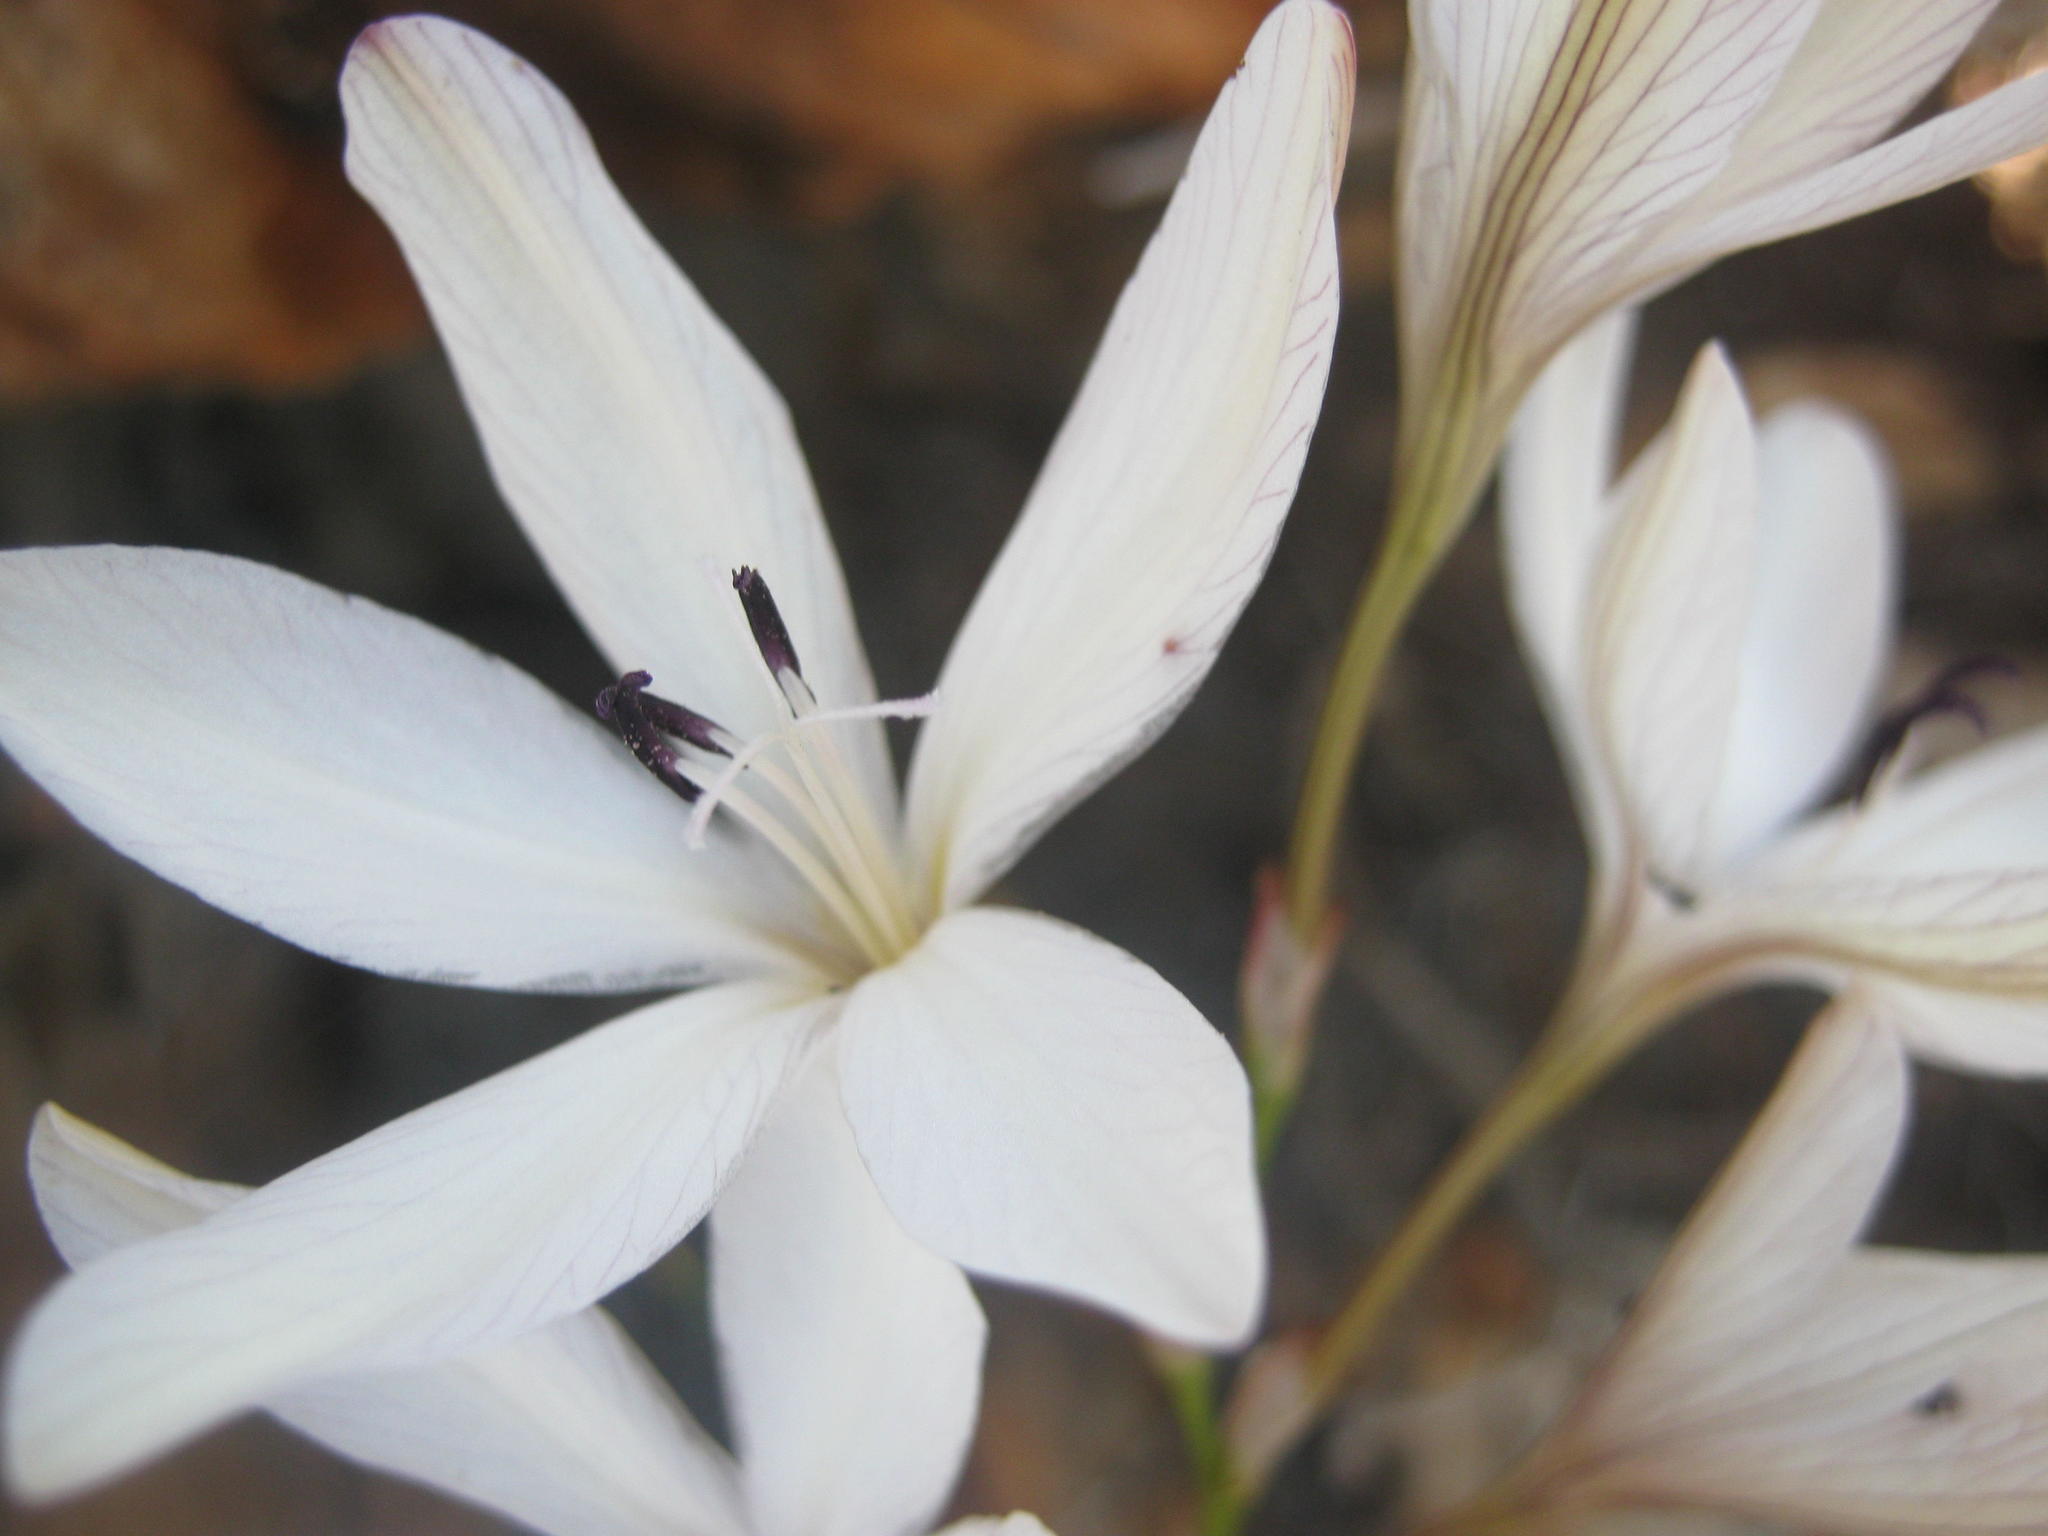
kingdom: Plantae
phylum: Tracheophyta
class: Liliopsida
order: Asparagales
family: Iridaceae
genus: Tritonia
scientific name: Tritonia bakeri
